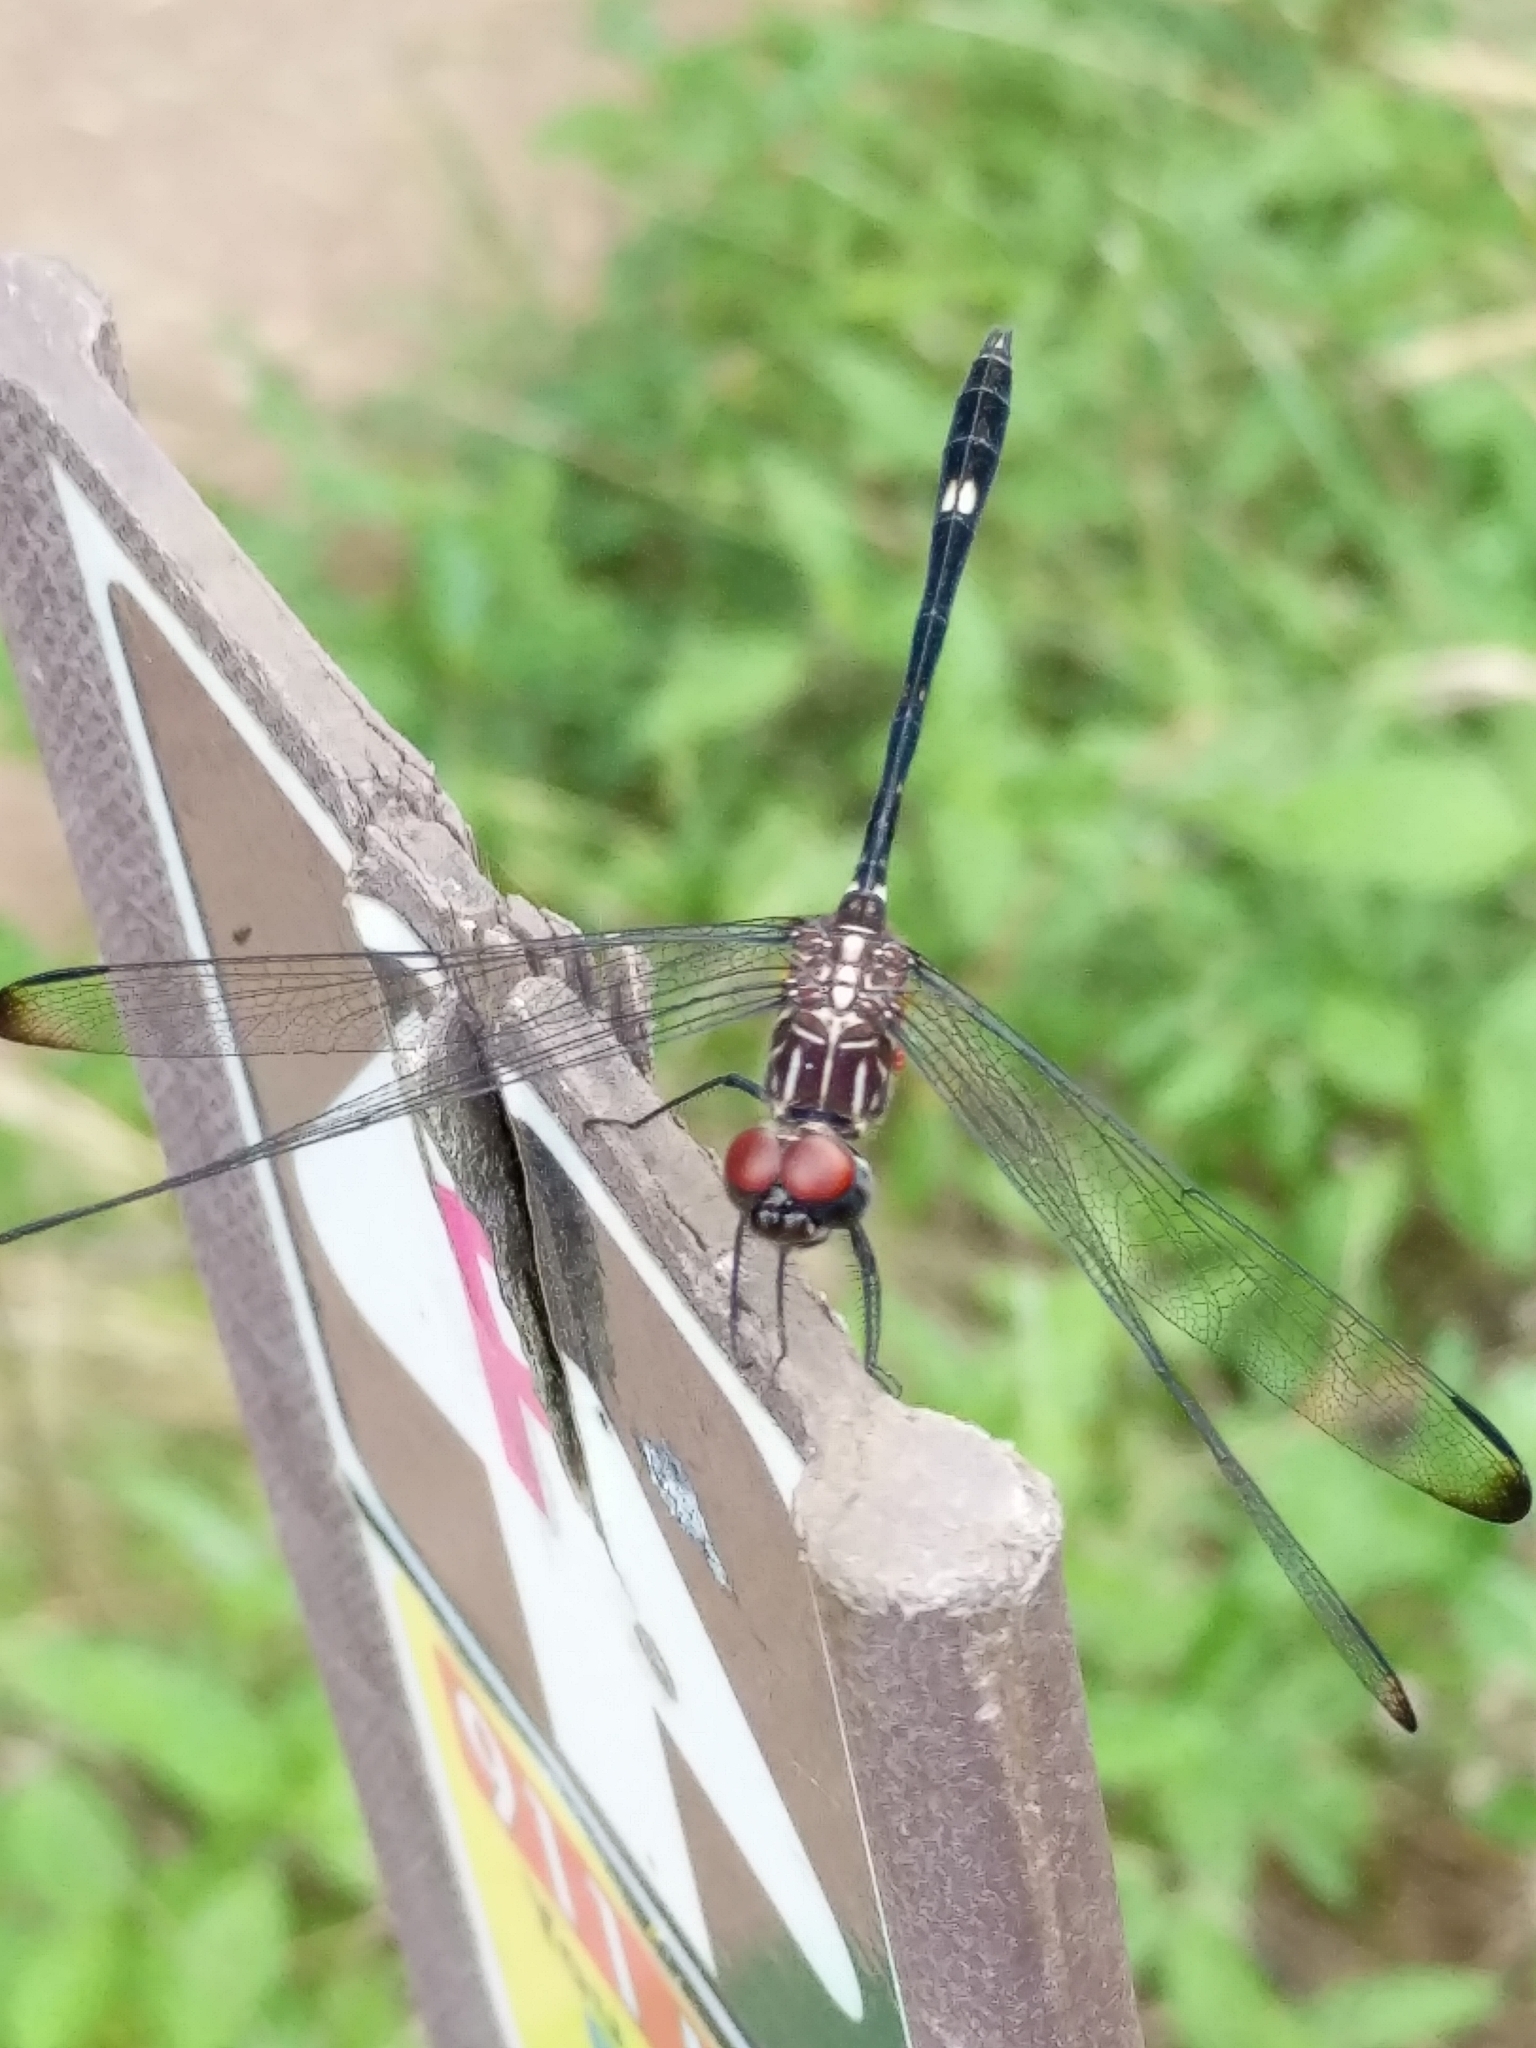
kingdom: Animalia
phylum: Arthropoda
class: Insecta
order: Odonata
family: Libellulidae
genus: Dythemis
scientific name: Dythemis velox
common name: Swift setwing
